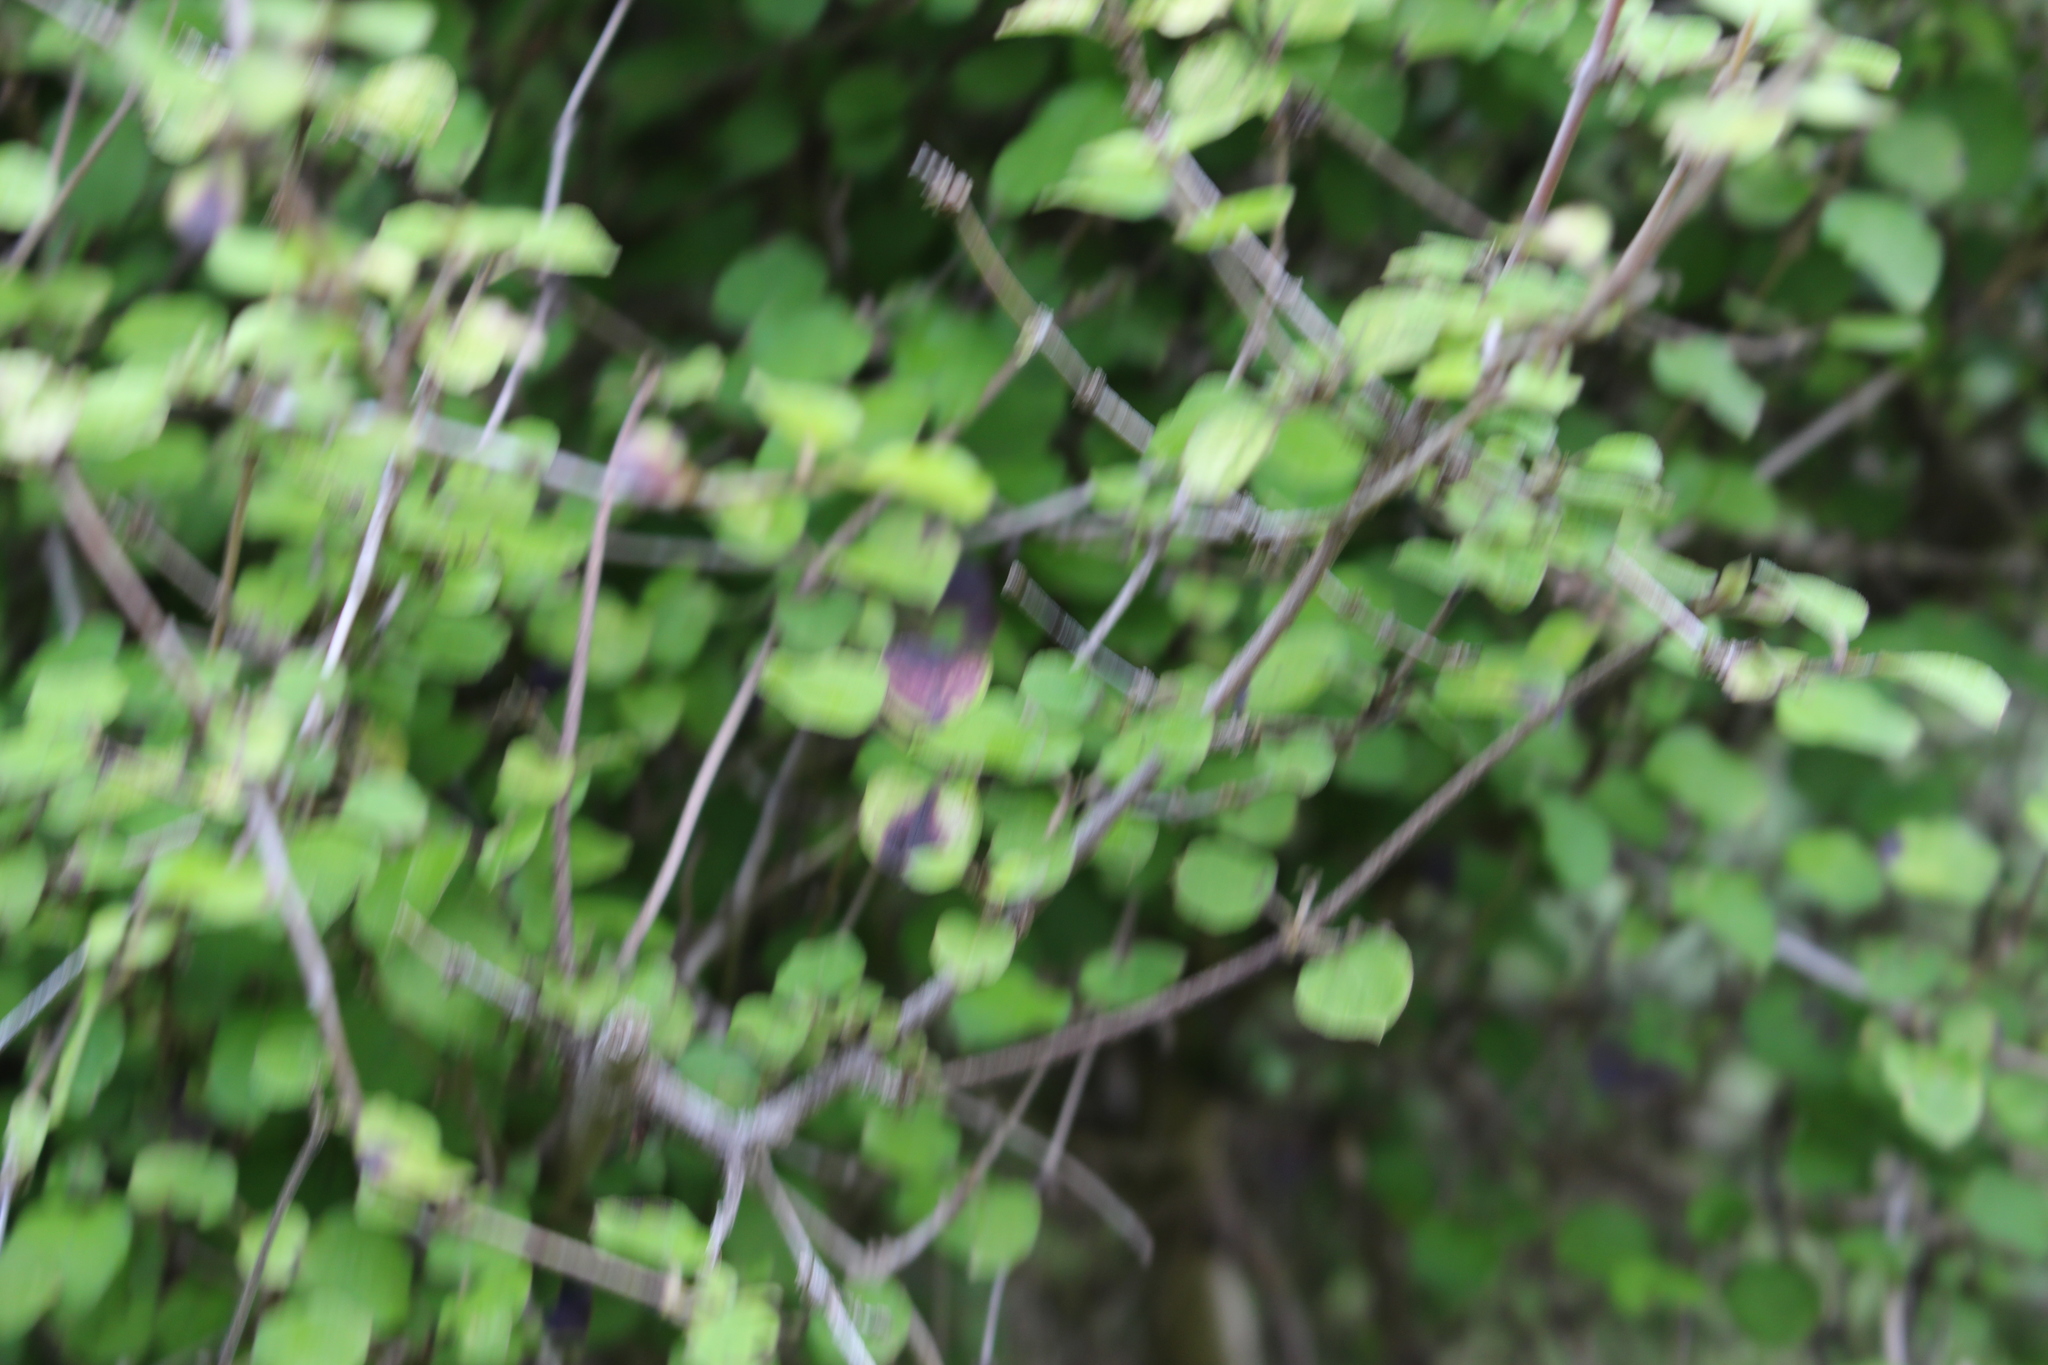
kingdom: Plantae
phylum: Tracheophyta
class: Magnoliopsida
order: Gentianales
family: Rubiaceae
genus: Coprosma
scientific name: Coprosma rotundifolia
